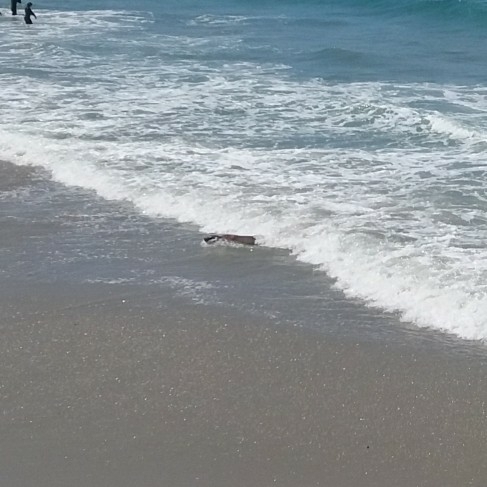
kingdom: Animalia
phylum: Chordata
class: Mammalia
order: Carnivora
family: Otariidae
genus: Phocarctos
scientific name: Phocarctos hookeri
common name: New zealand sea lion
